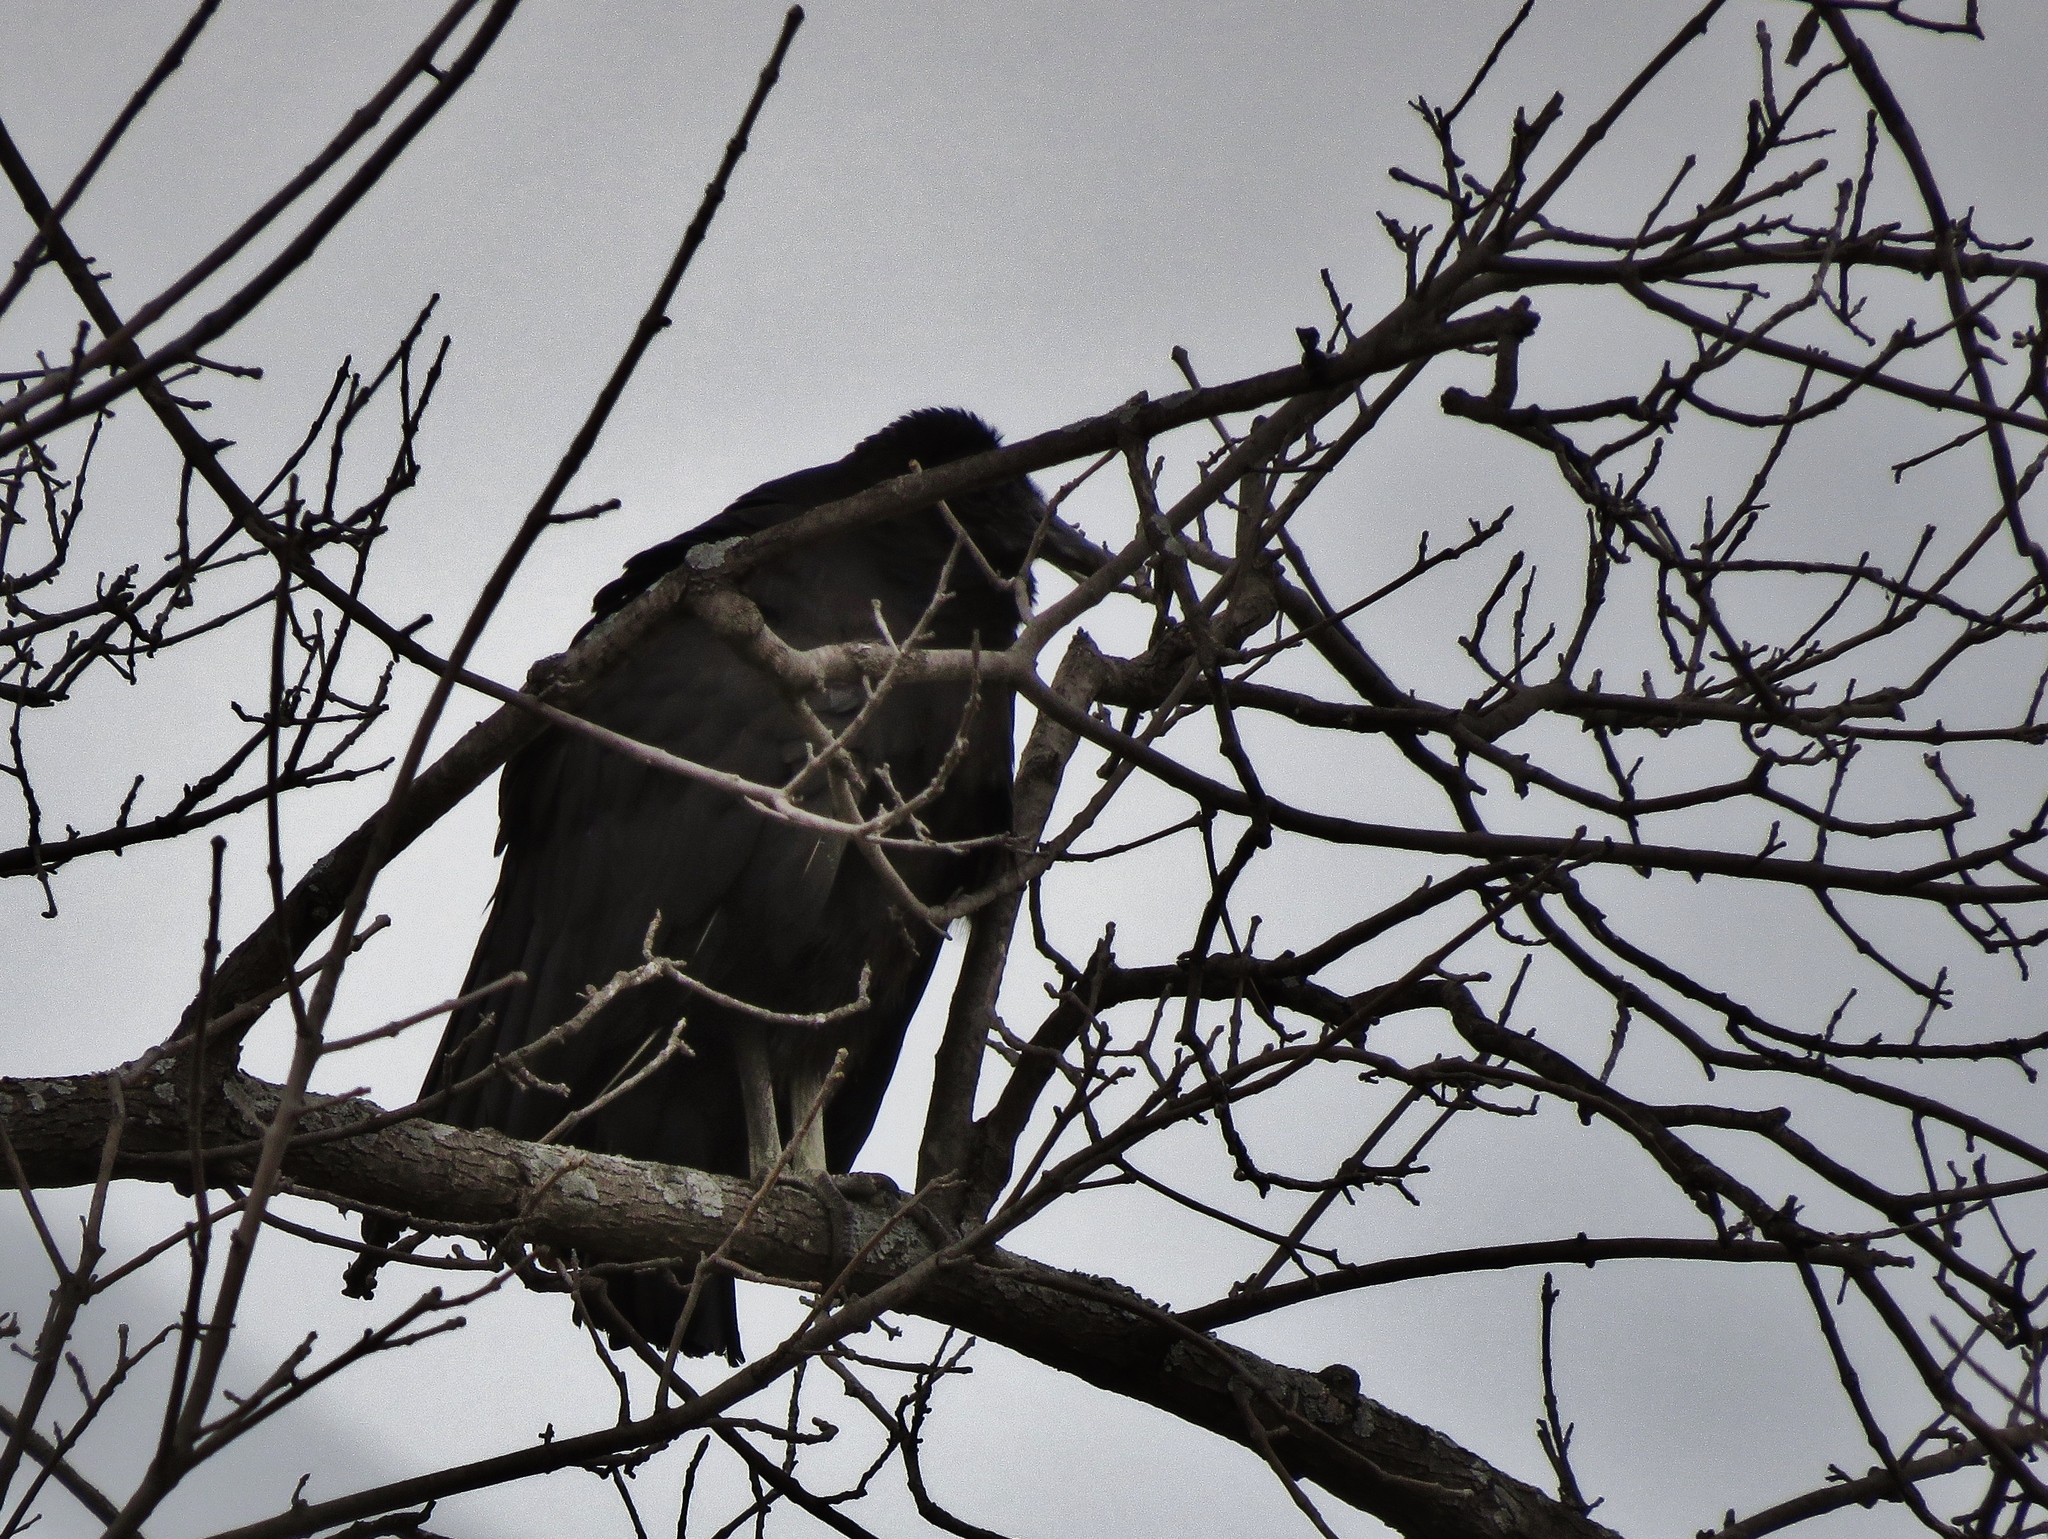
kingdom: Animalia
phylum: Chordata
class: Aves
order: Accipitriformes
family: Cathartidae
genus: Coragyps
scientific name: Coragyps atratus
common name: Black vulture
